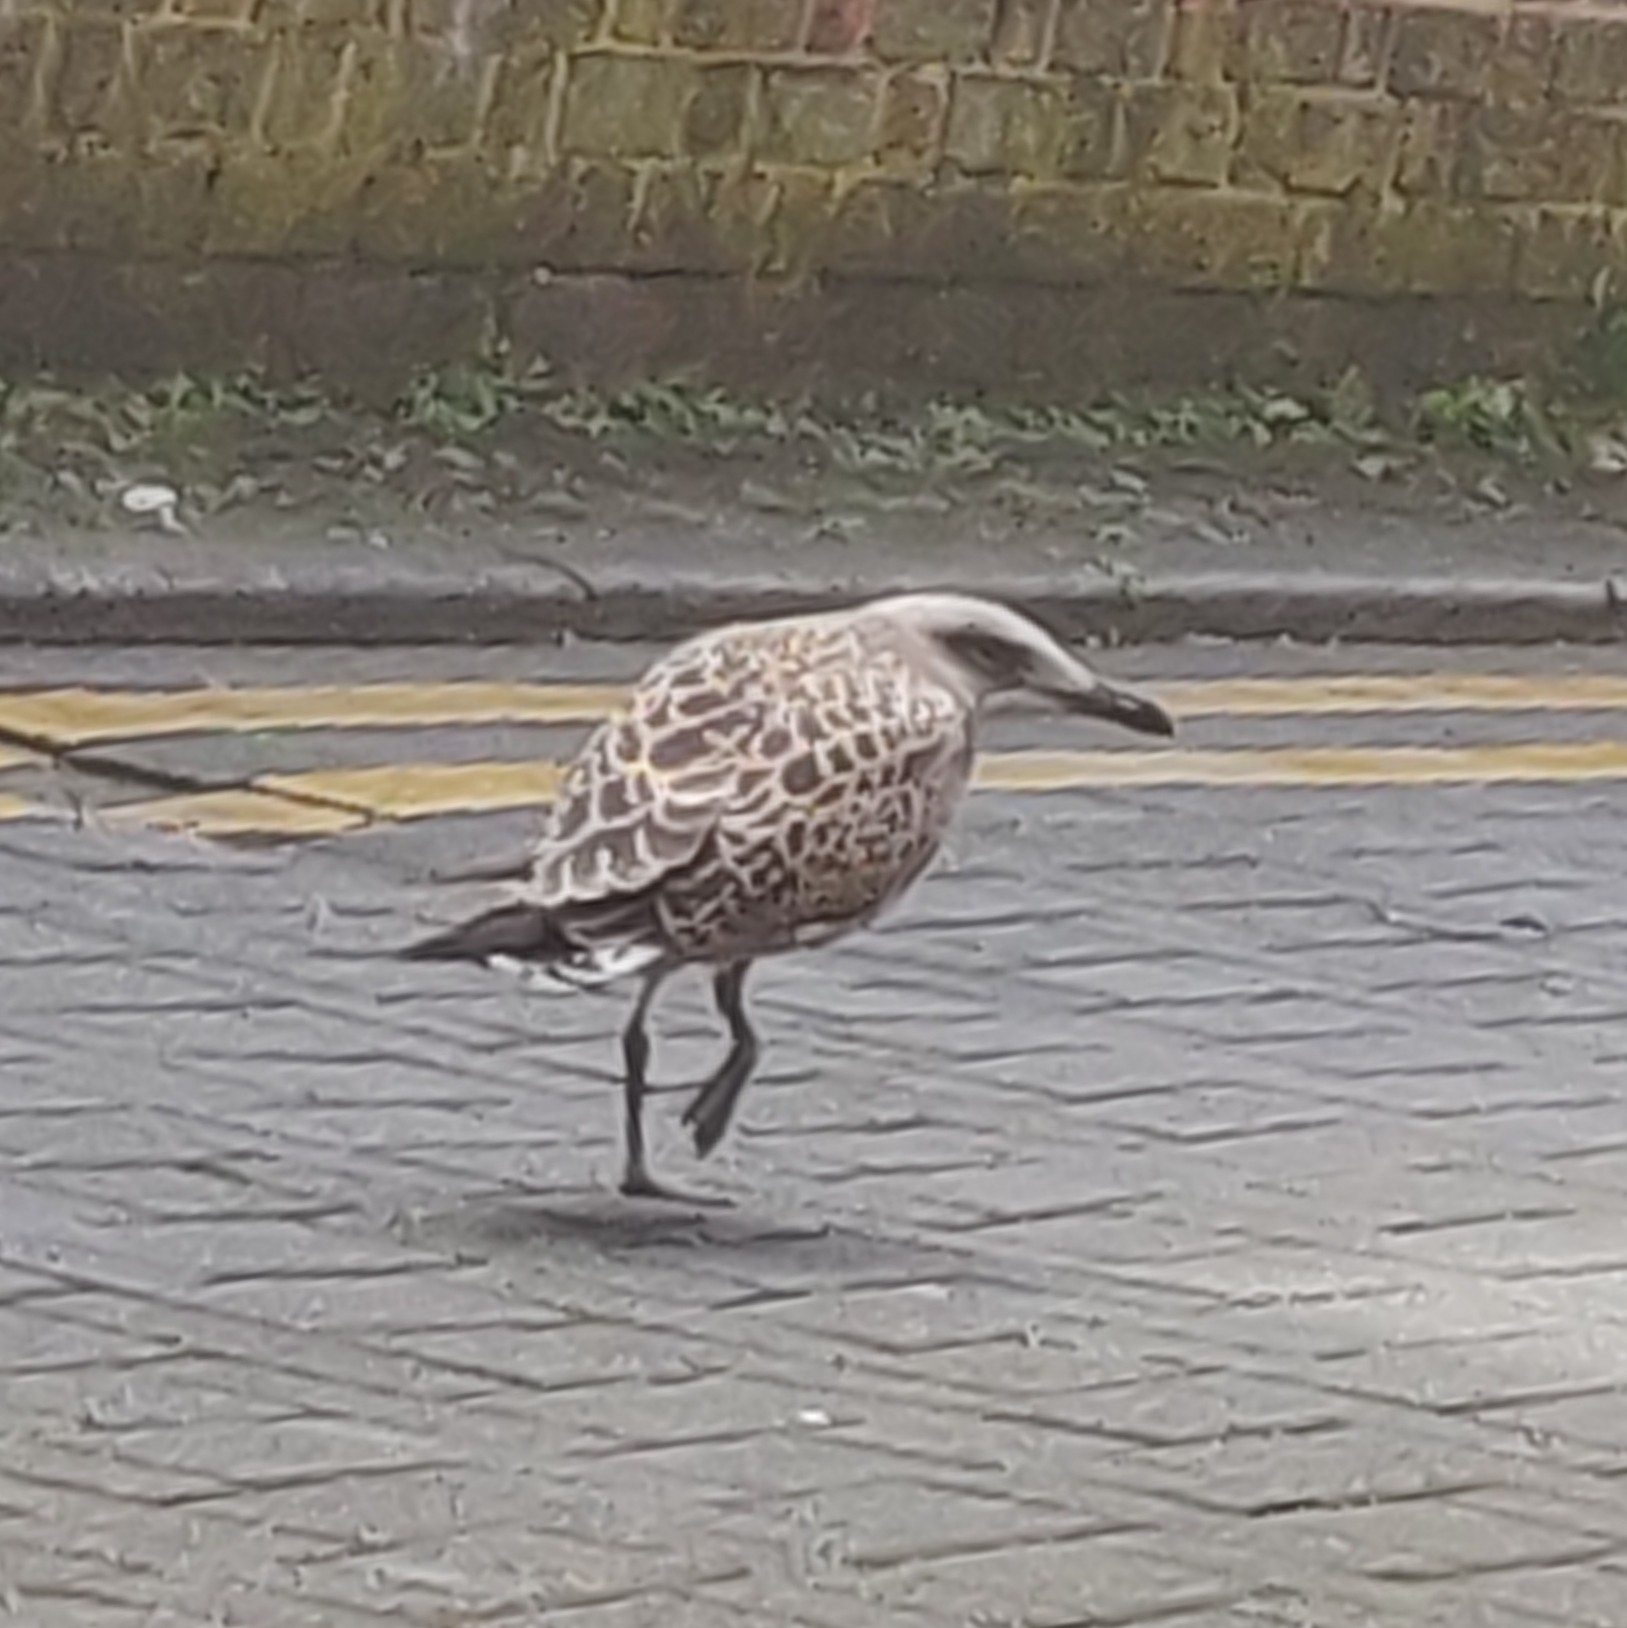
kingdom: Animalia
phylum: Chordata
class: Aves
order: Charadriiformes
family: Laridae
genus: Larus
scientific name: Larus fuscus
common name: Lesser black-backed gull
